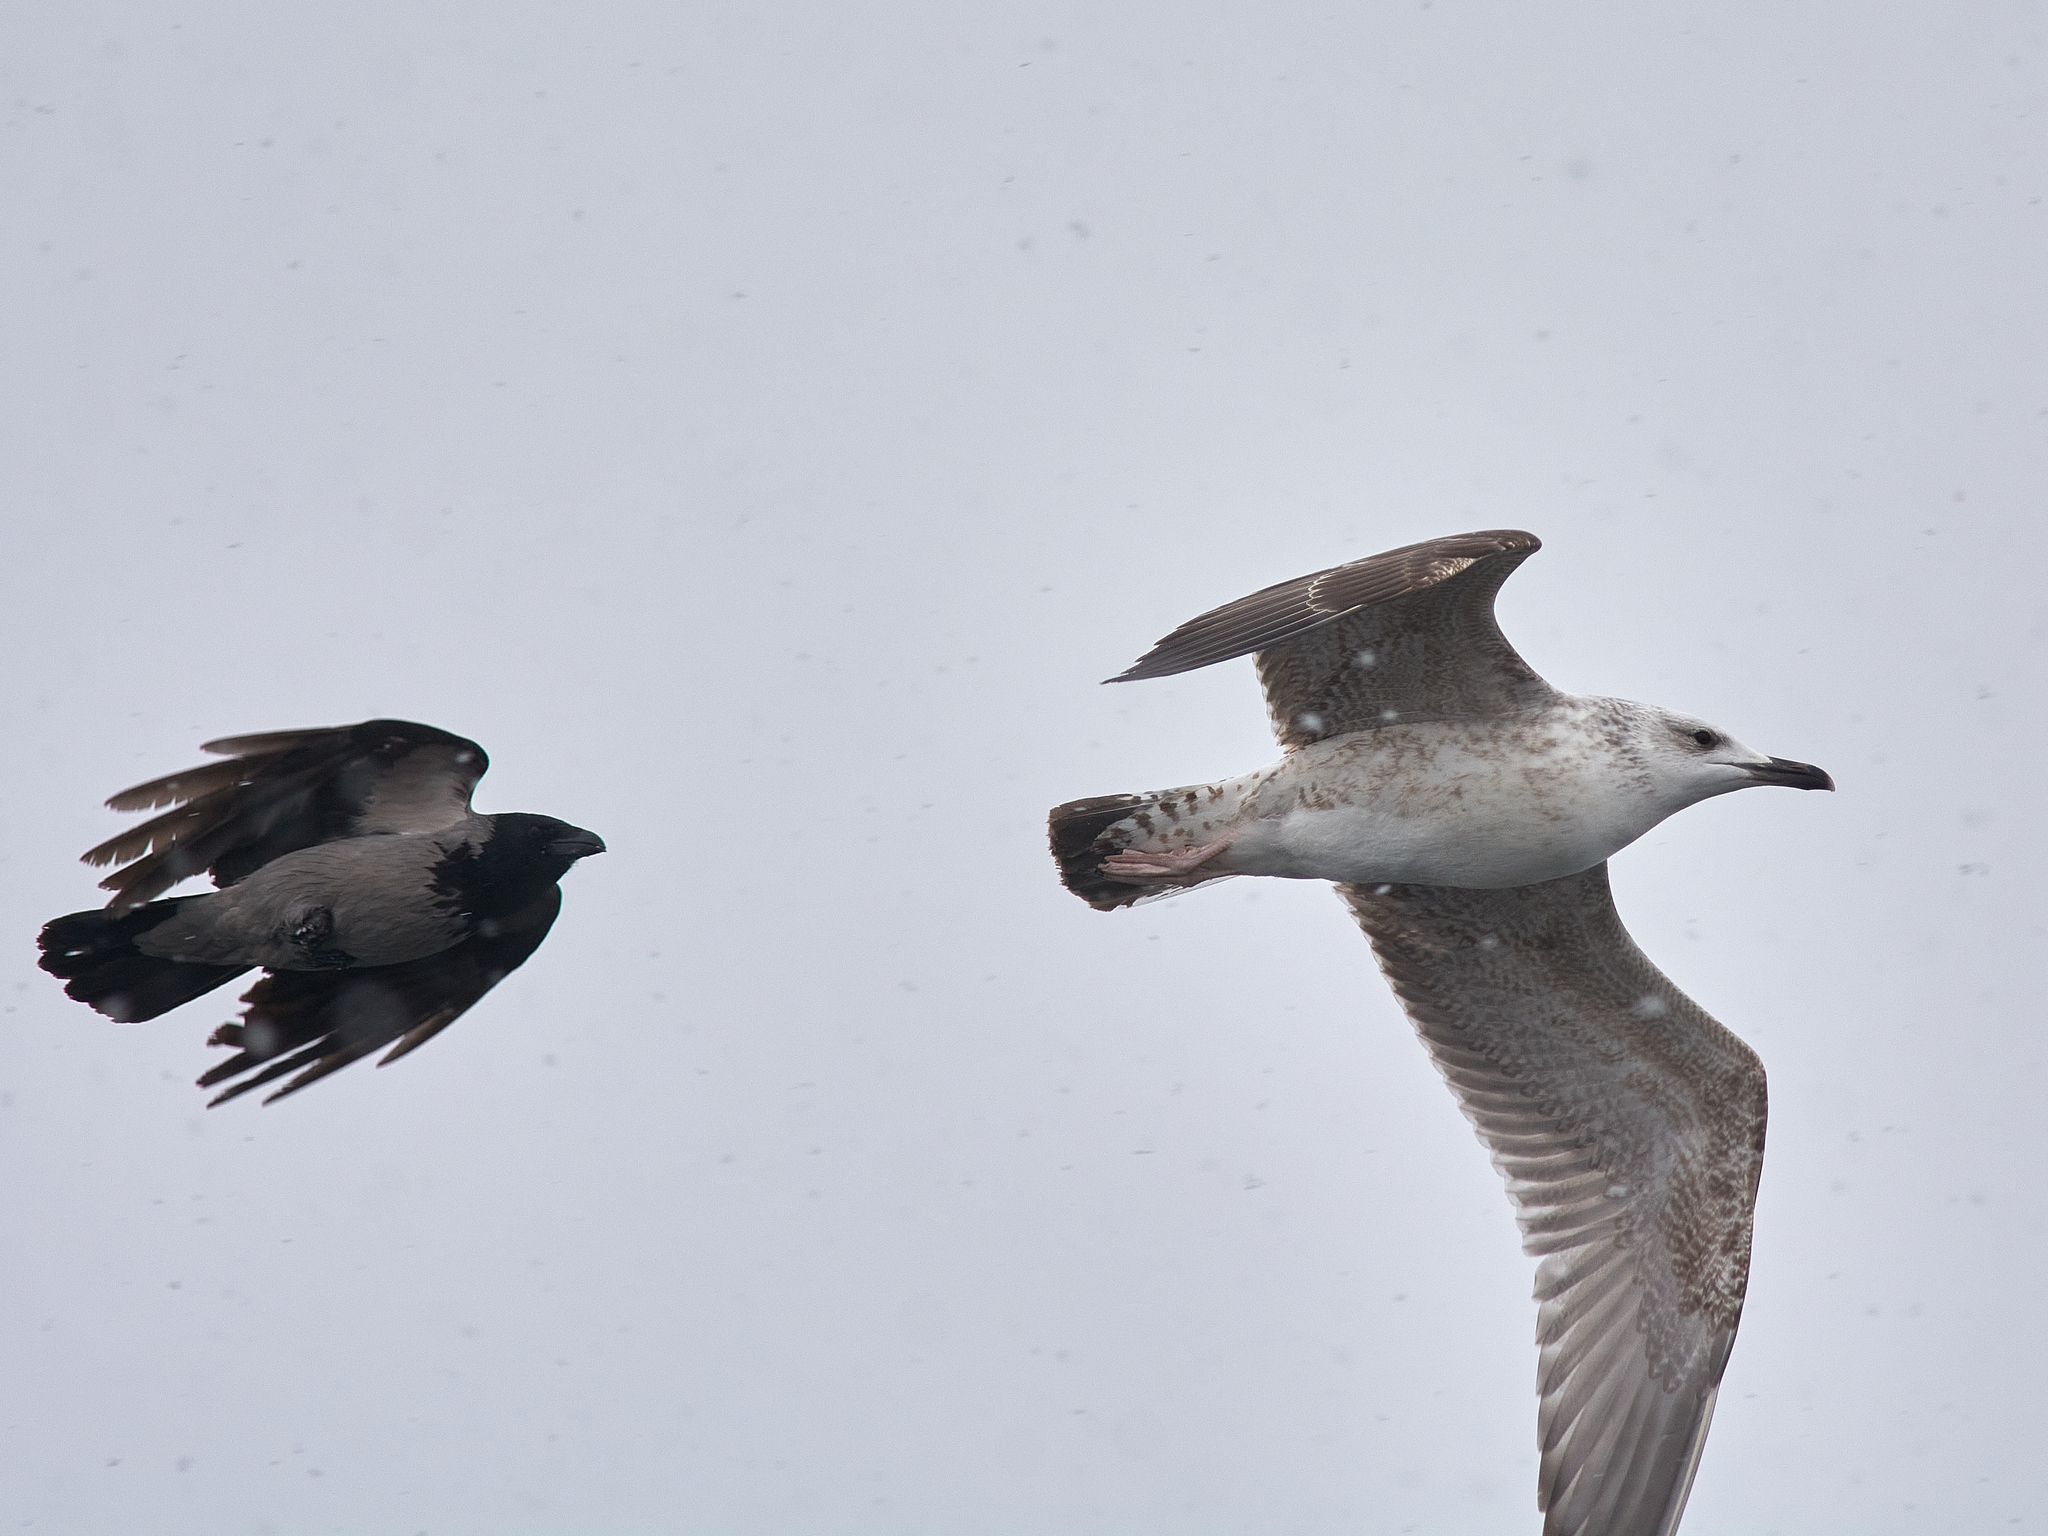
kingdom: Animalia
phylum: Chordata
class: Aves
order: Charadriiformes
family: Laridae
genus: Larus
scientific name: Larus cachinnans
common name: Caspian gull
